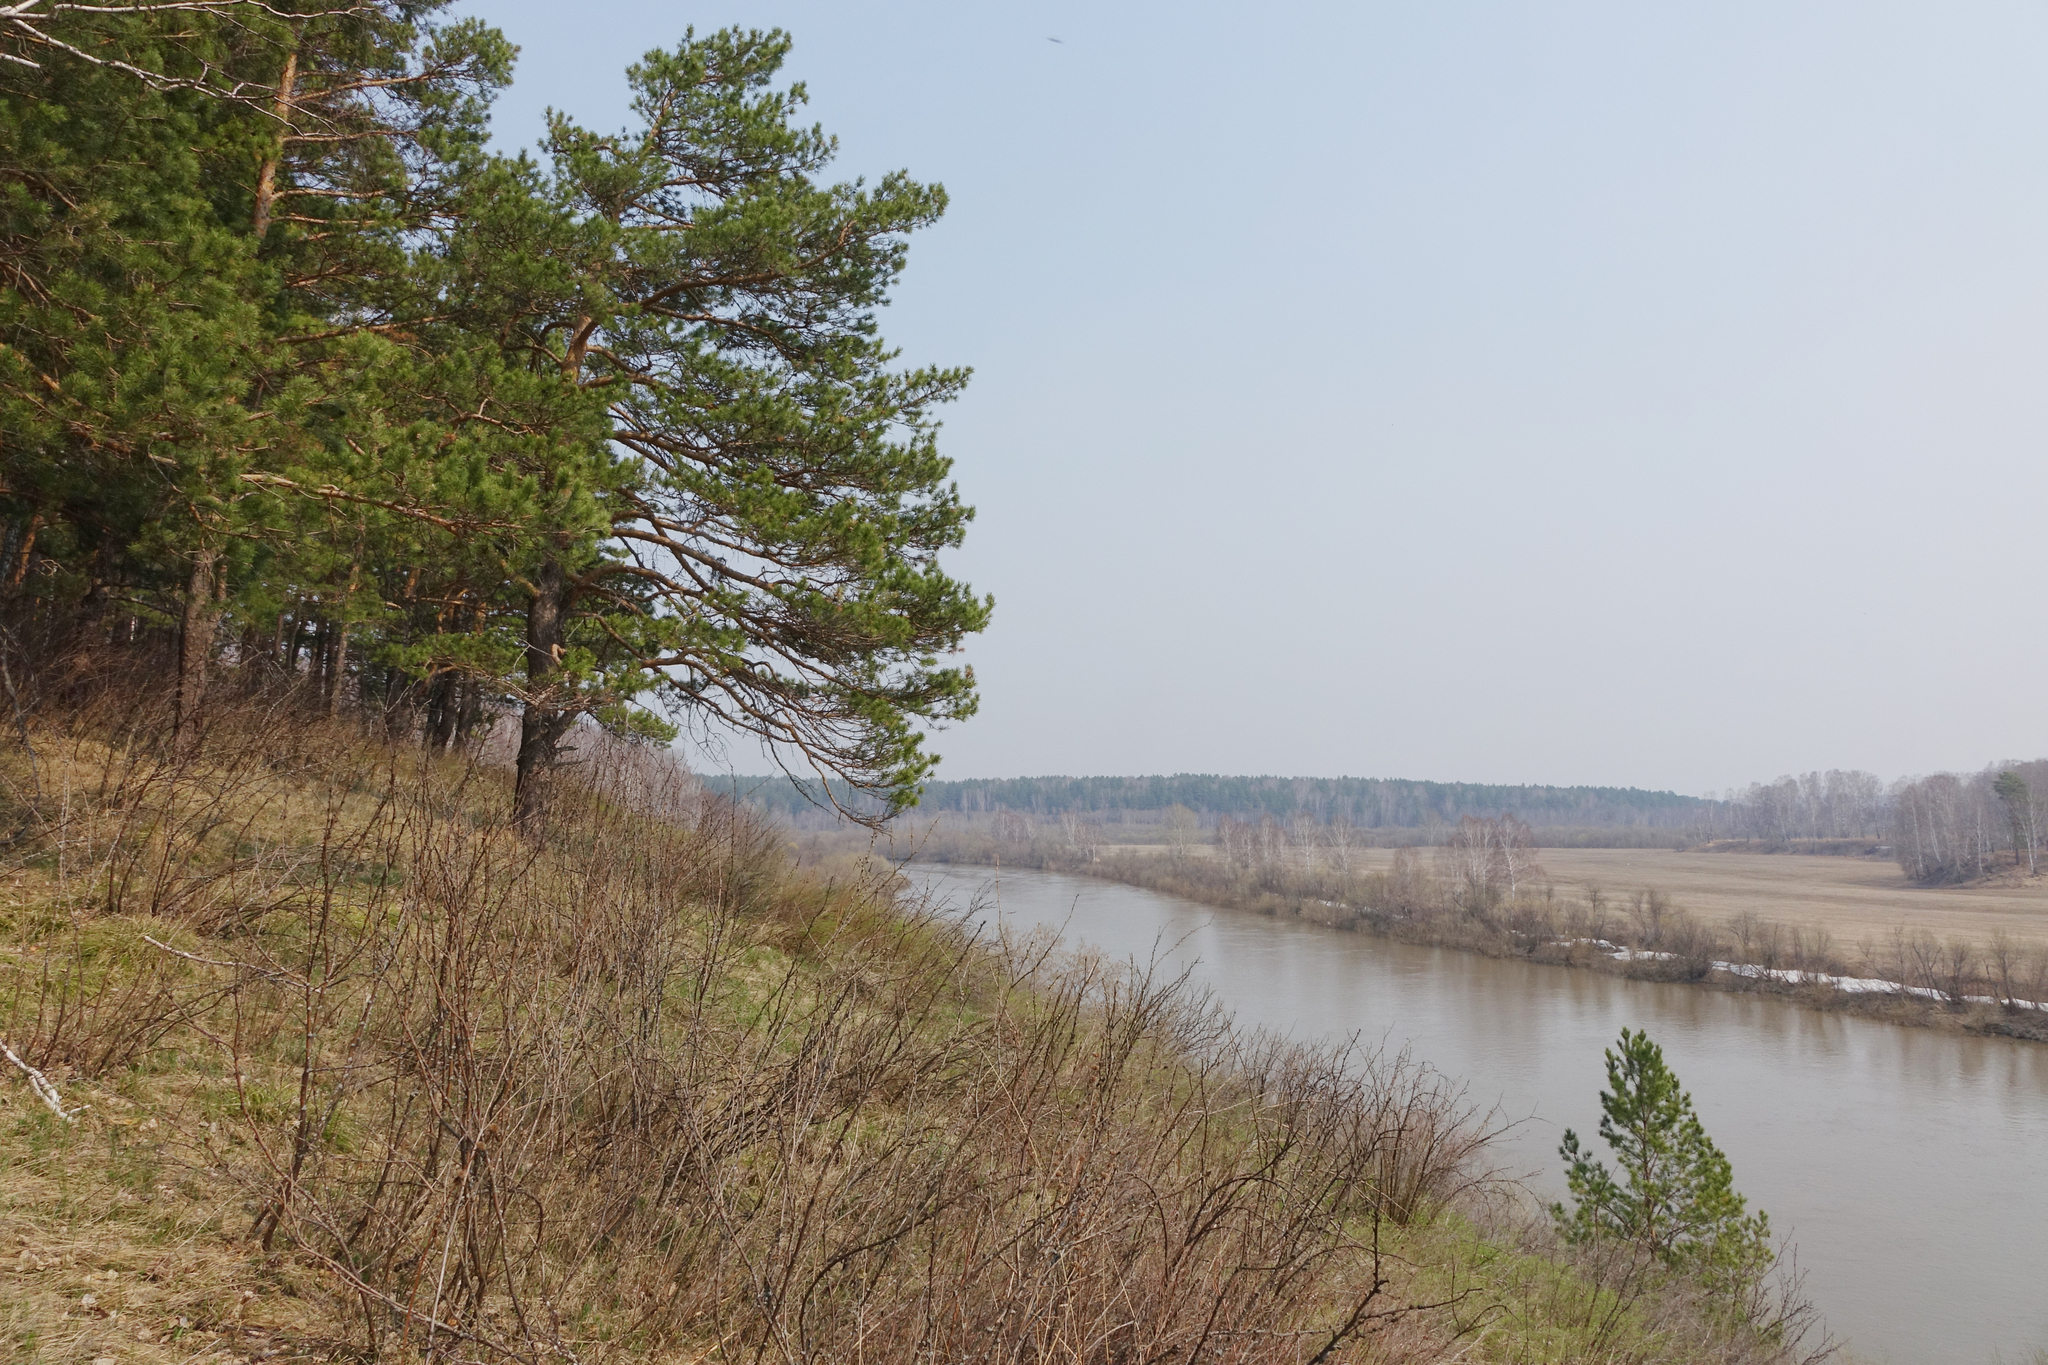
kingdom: Plantae
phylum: Tracheophyta
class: Magnoliopsida
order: Fabales
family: Fabaceae
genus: Caragana
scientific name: Caragana arborescens
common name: Siberian peashrub
